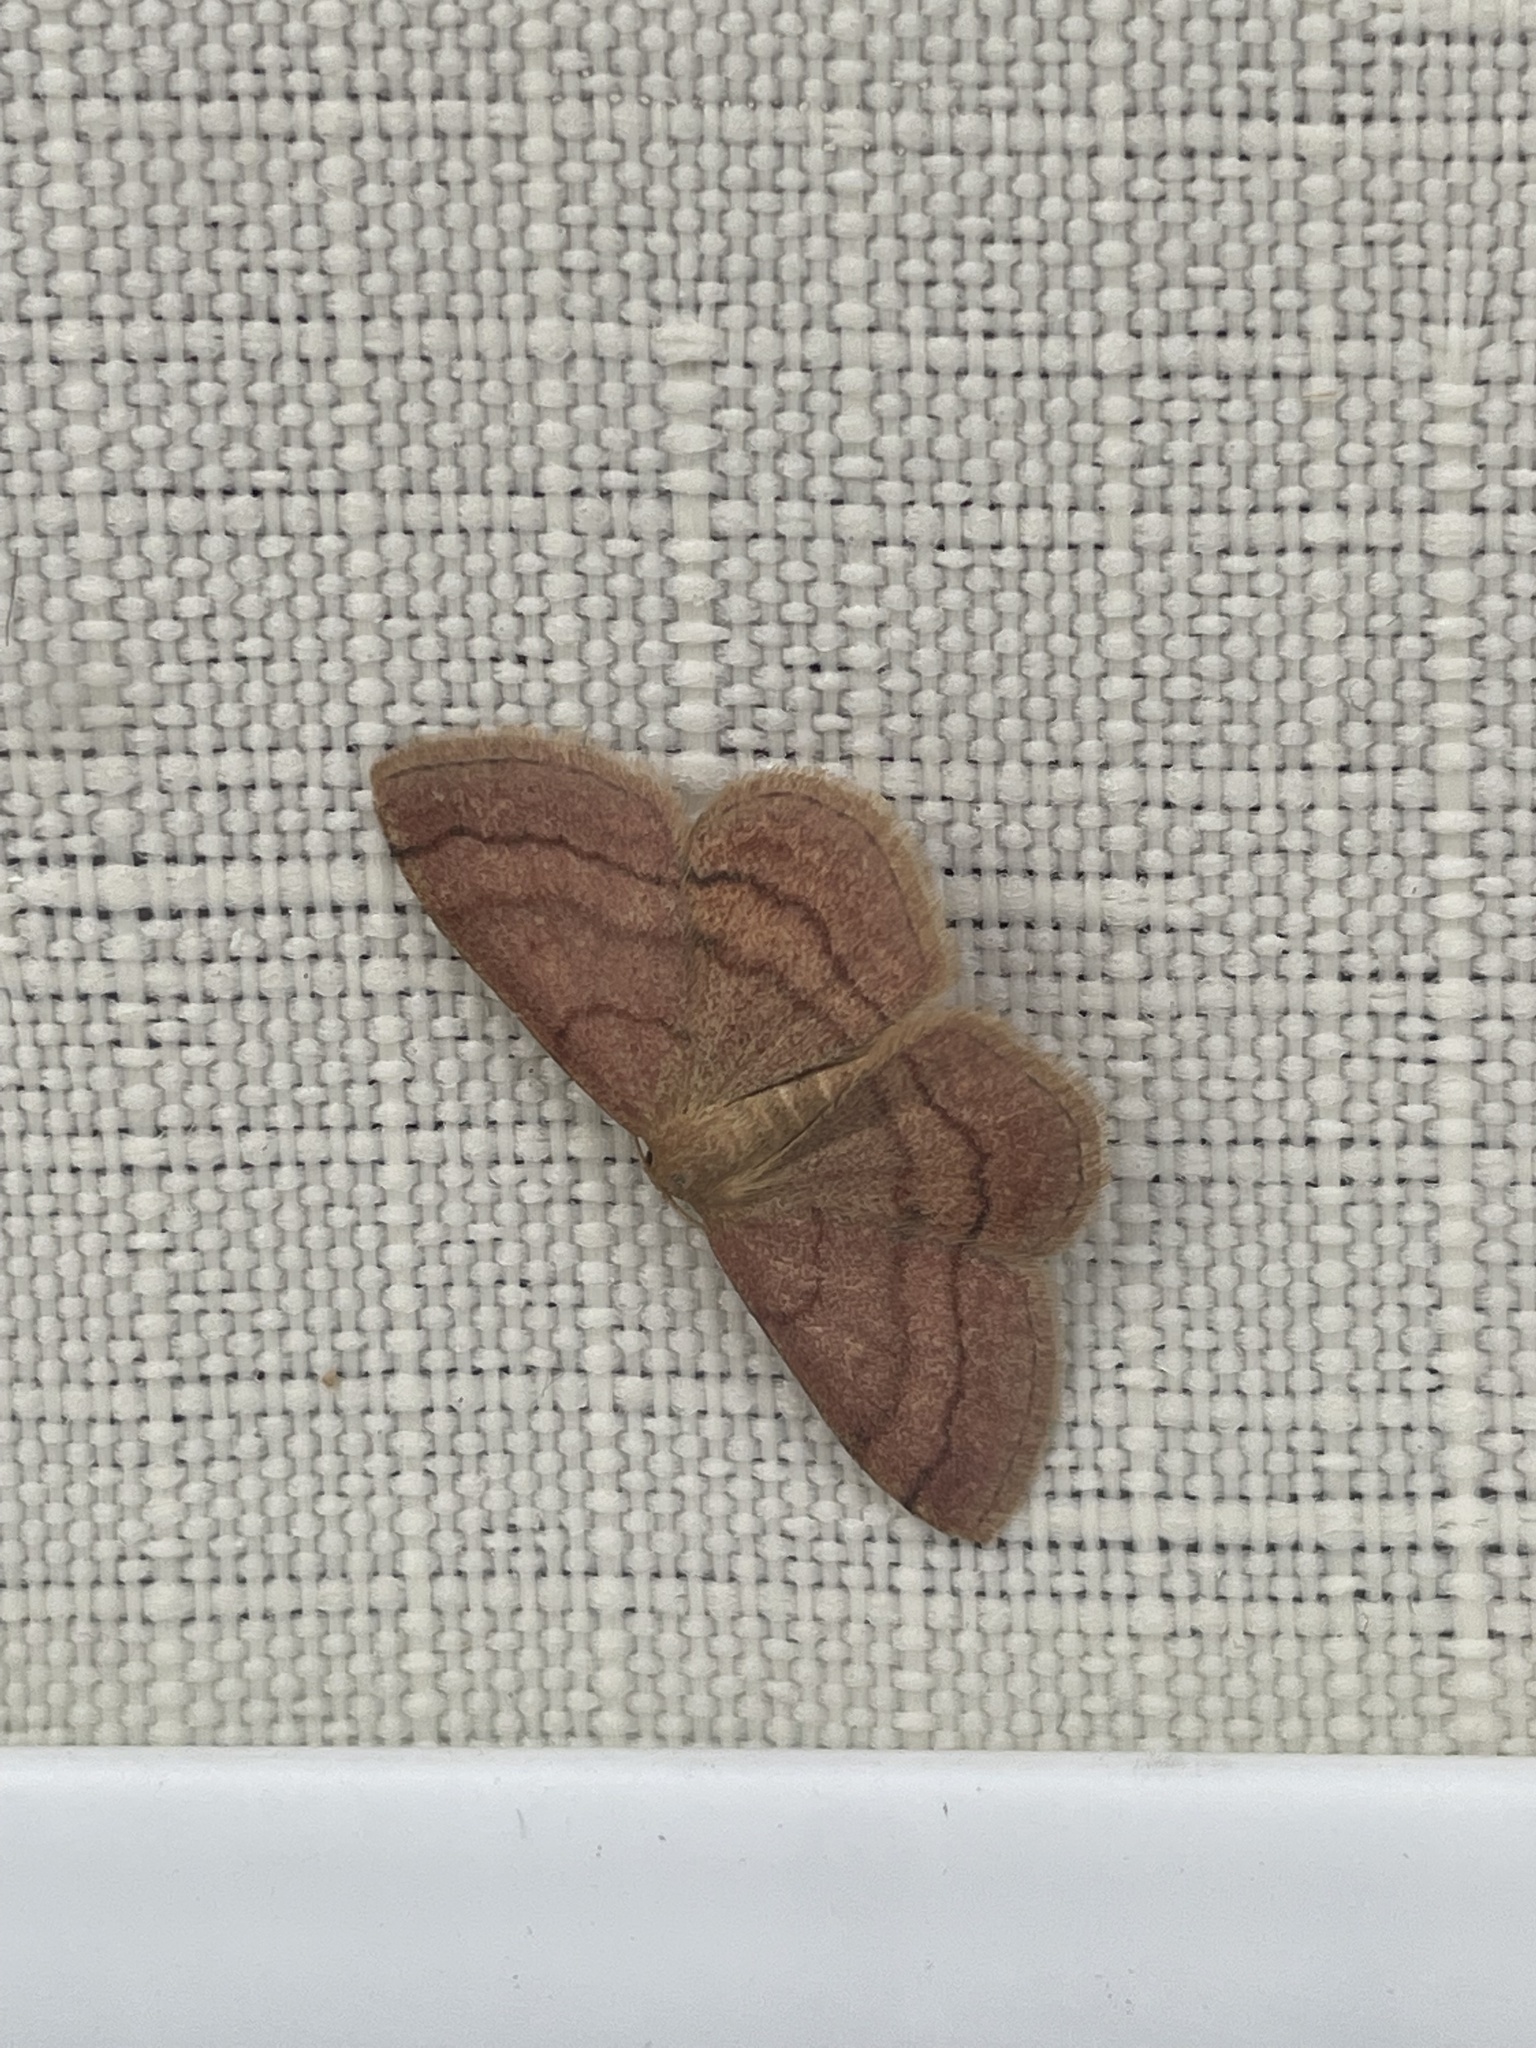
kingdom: Animalia
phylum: Arthropoda
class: Insecta
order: Lepidoptera
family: Geometridae
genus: Scopula
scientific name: Scopula rubiginata
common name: Tawny wave
